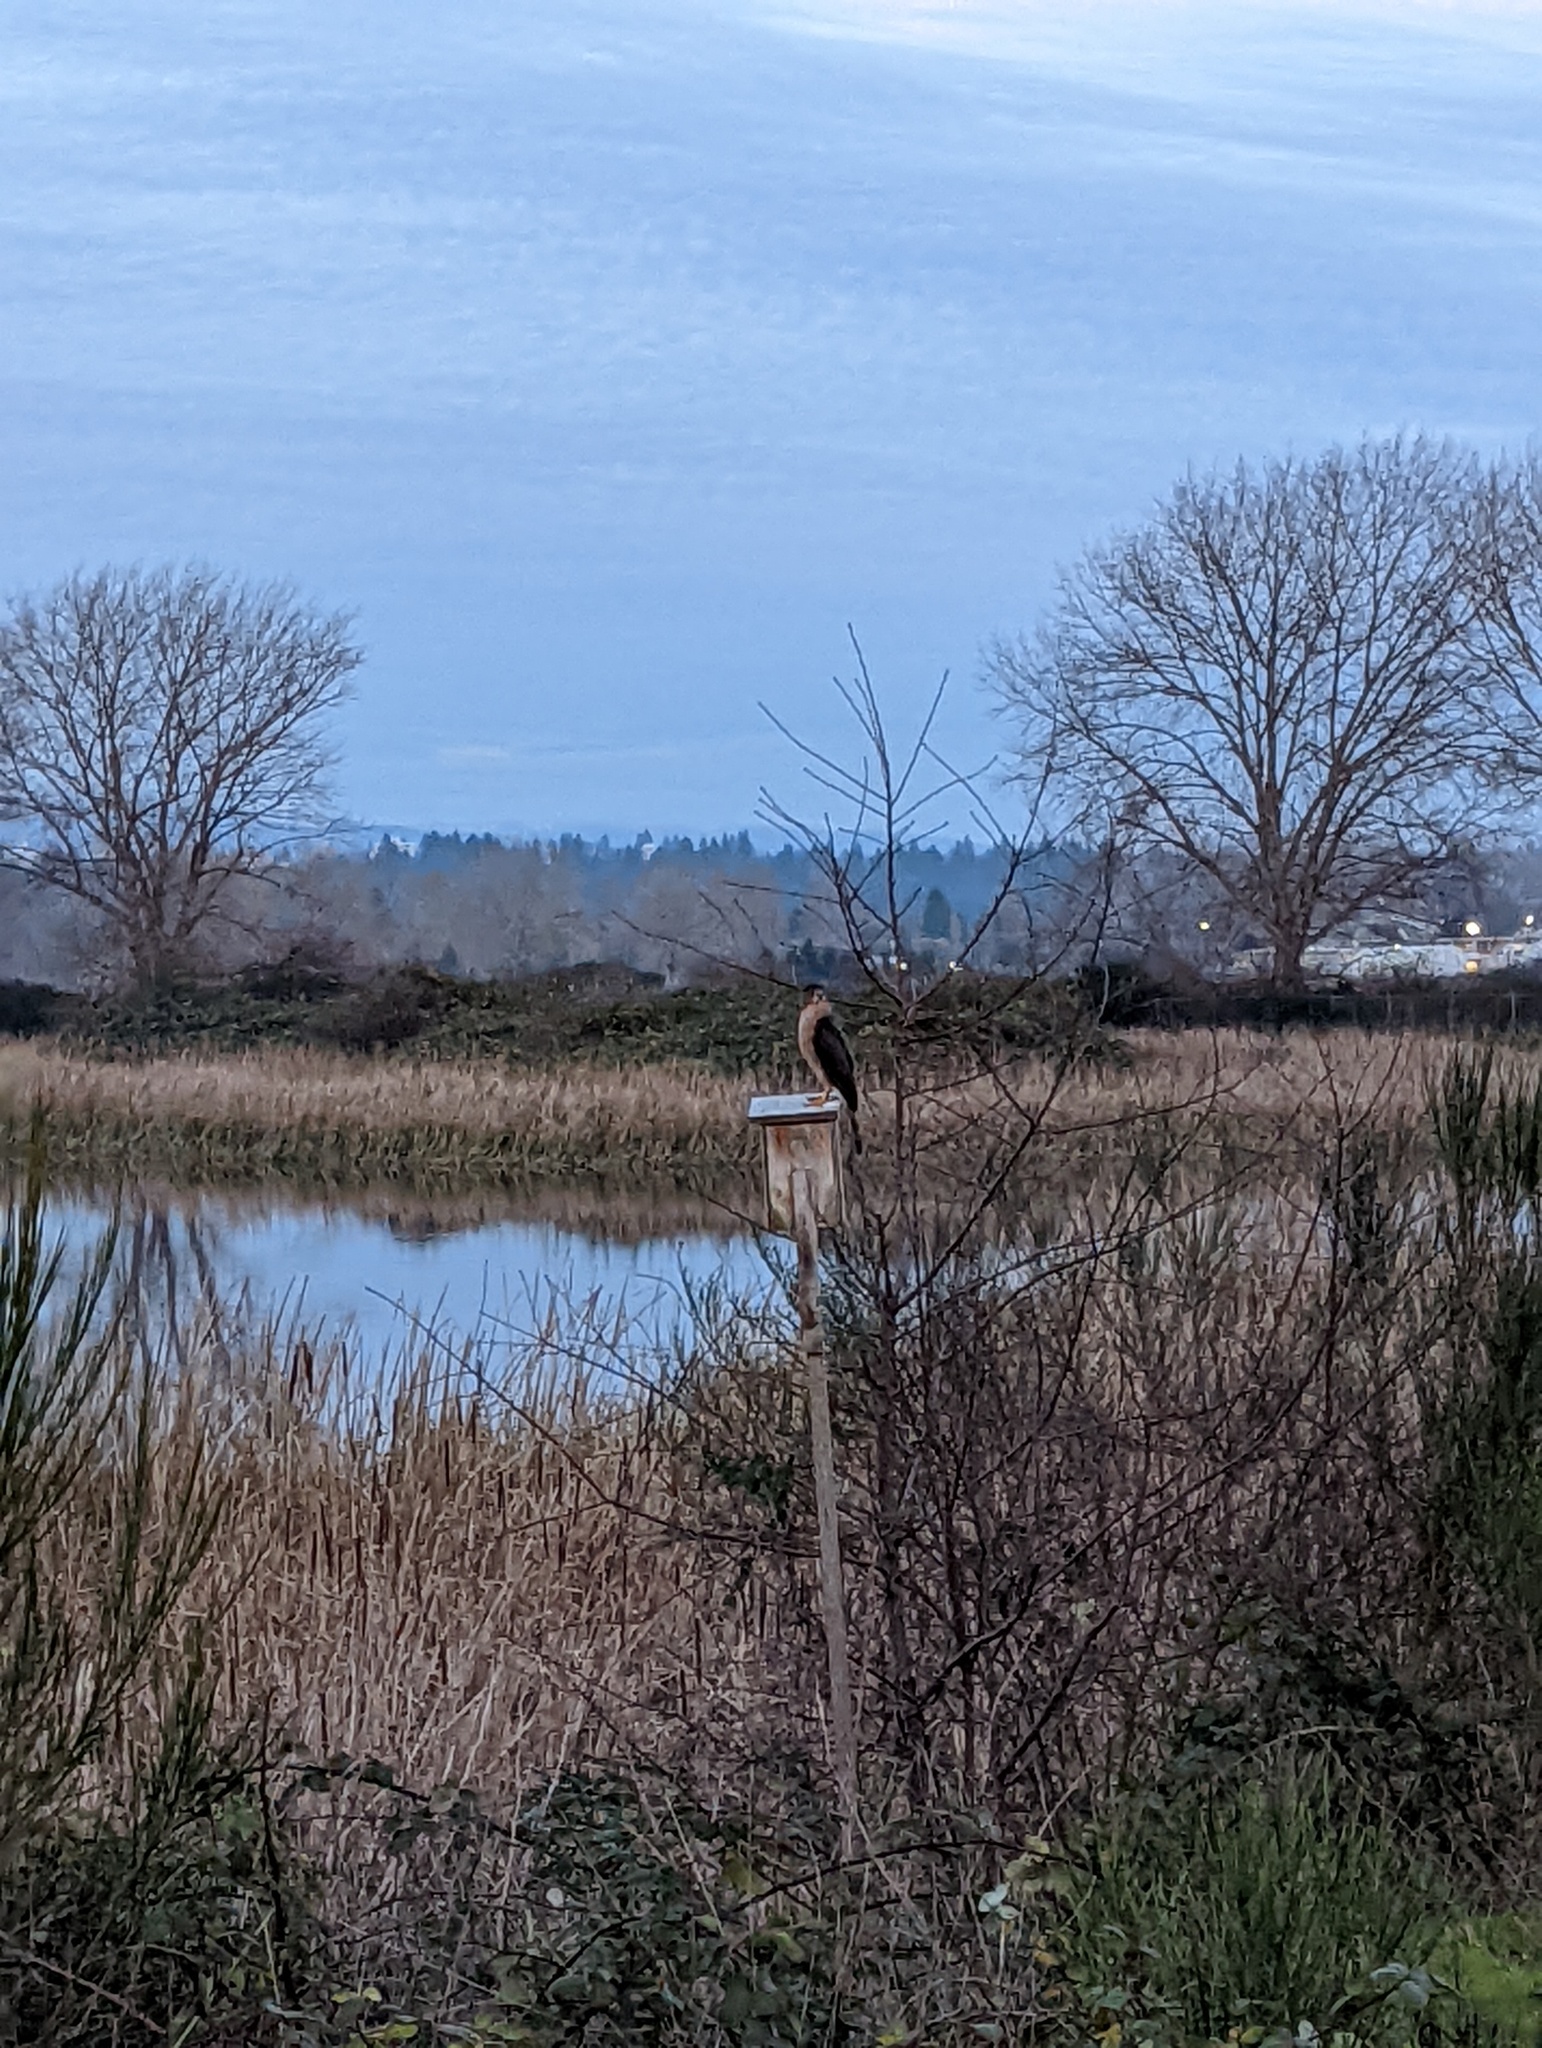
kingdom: Animalia
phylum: Chordata
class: Aves
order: Accipitriformes
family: Accipitridae
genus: Accipiter
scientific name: Accipiter cooperii
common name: Cooper's hawk
